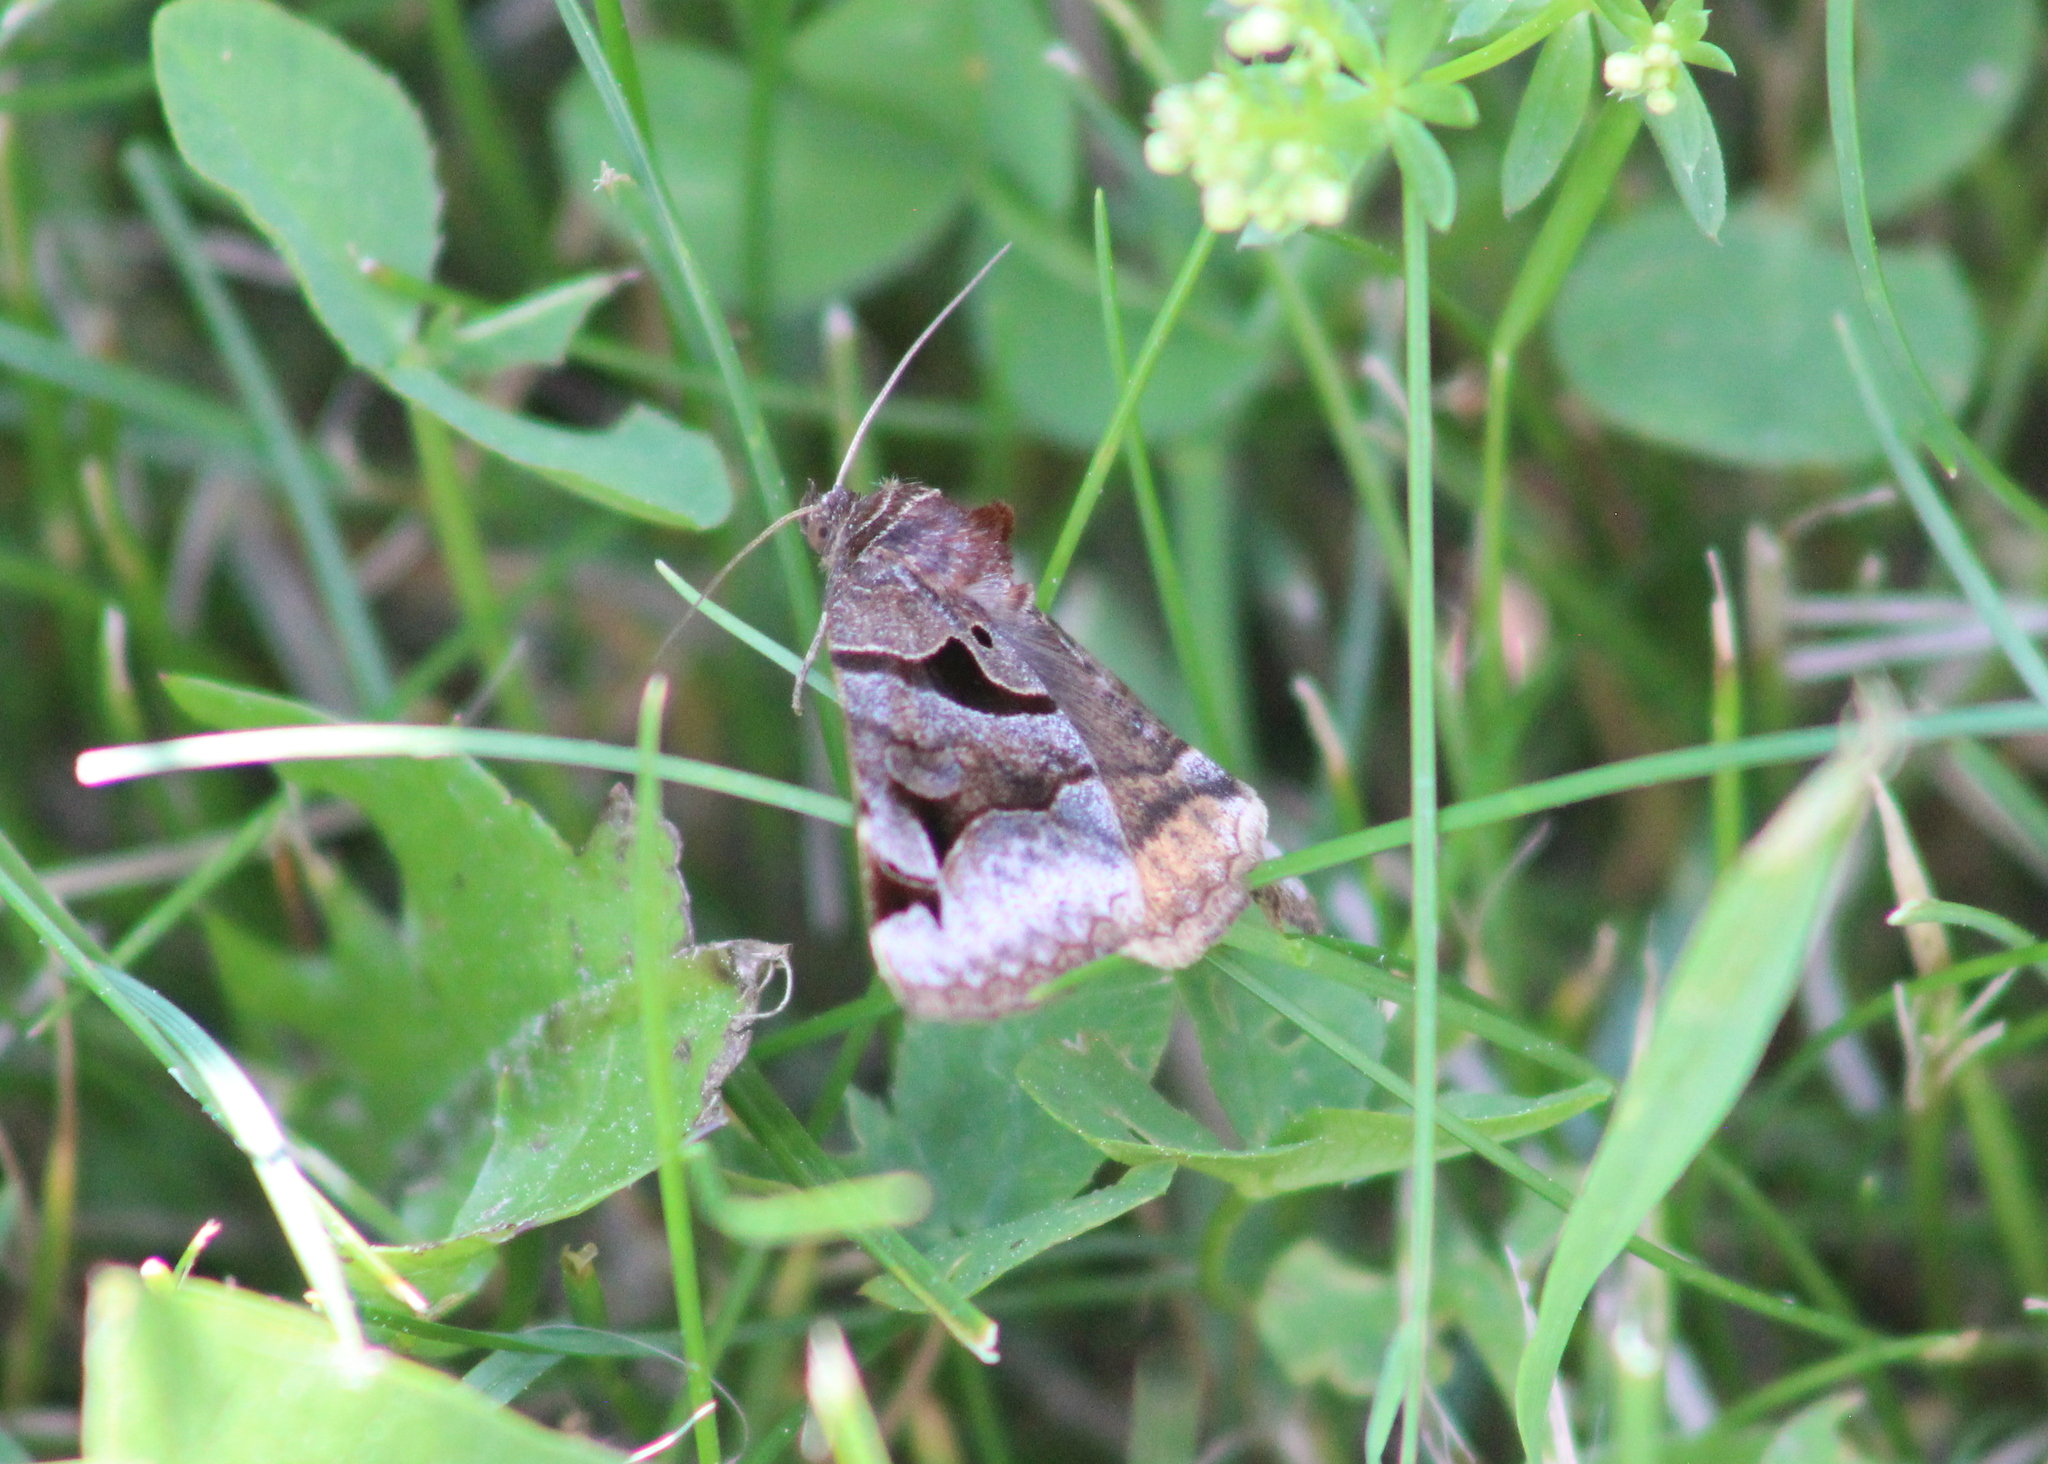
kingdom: Animalia
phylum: Arthropoda
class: Insecta
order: Lepidoptera
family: Erebidae
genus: Euclidia
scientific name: Euclidia cuspidea
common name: Toothed somberwing
